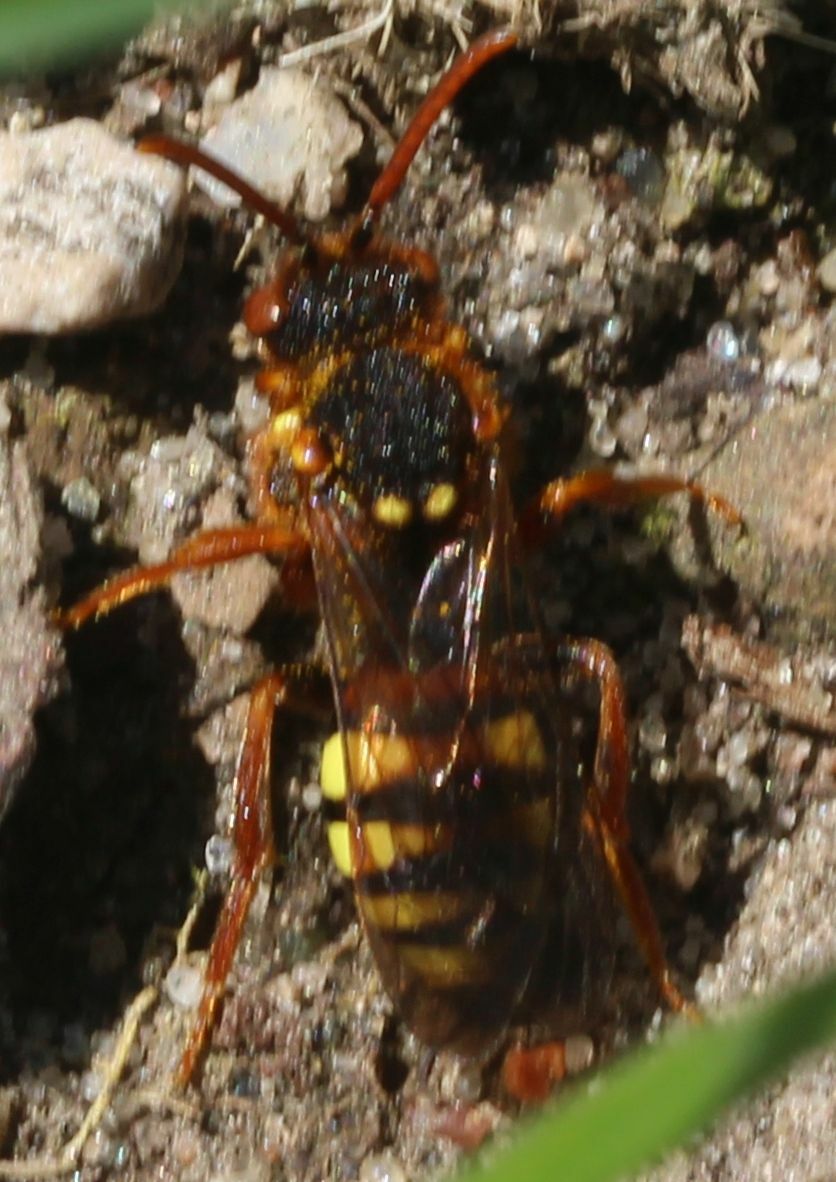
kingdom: Animalia
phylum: Arthropoda
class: Insecta
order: Hymenoptera
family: Apidae
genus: Nomada
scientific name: Nomada lathburiana
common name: Lathbury's nomad bee
